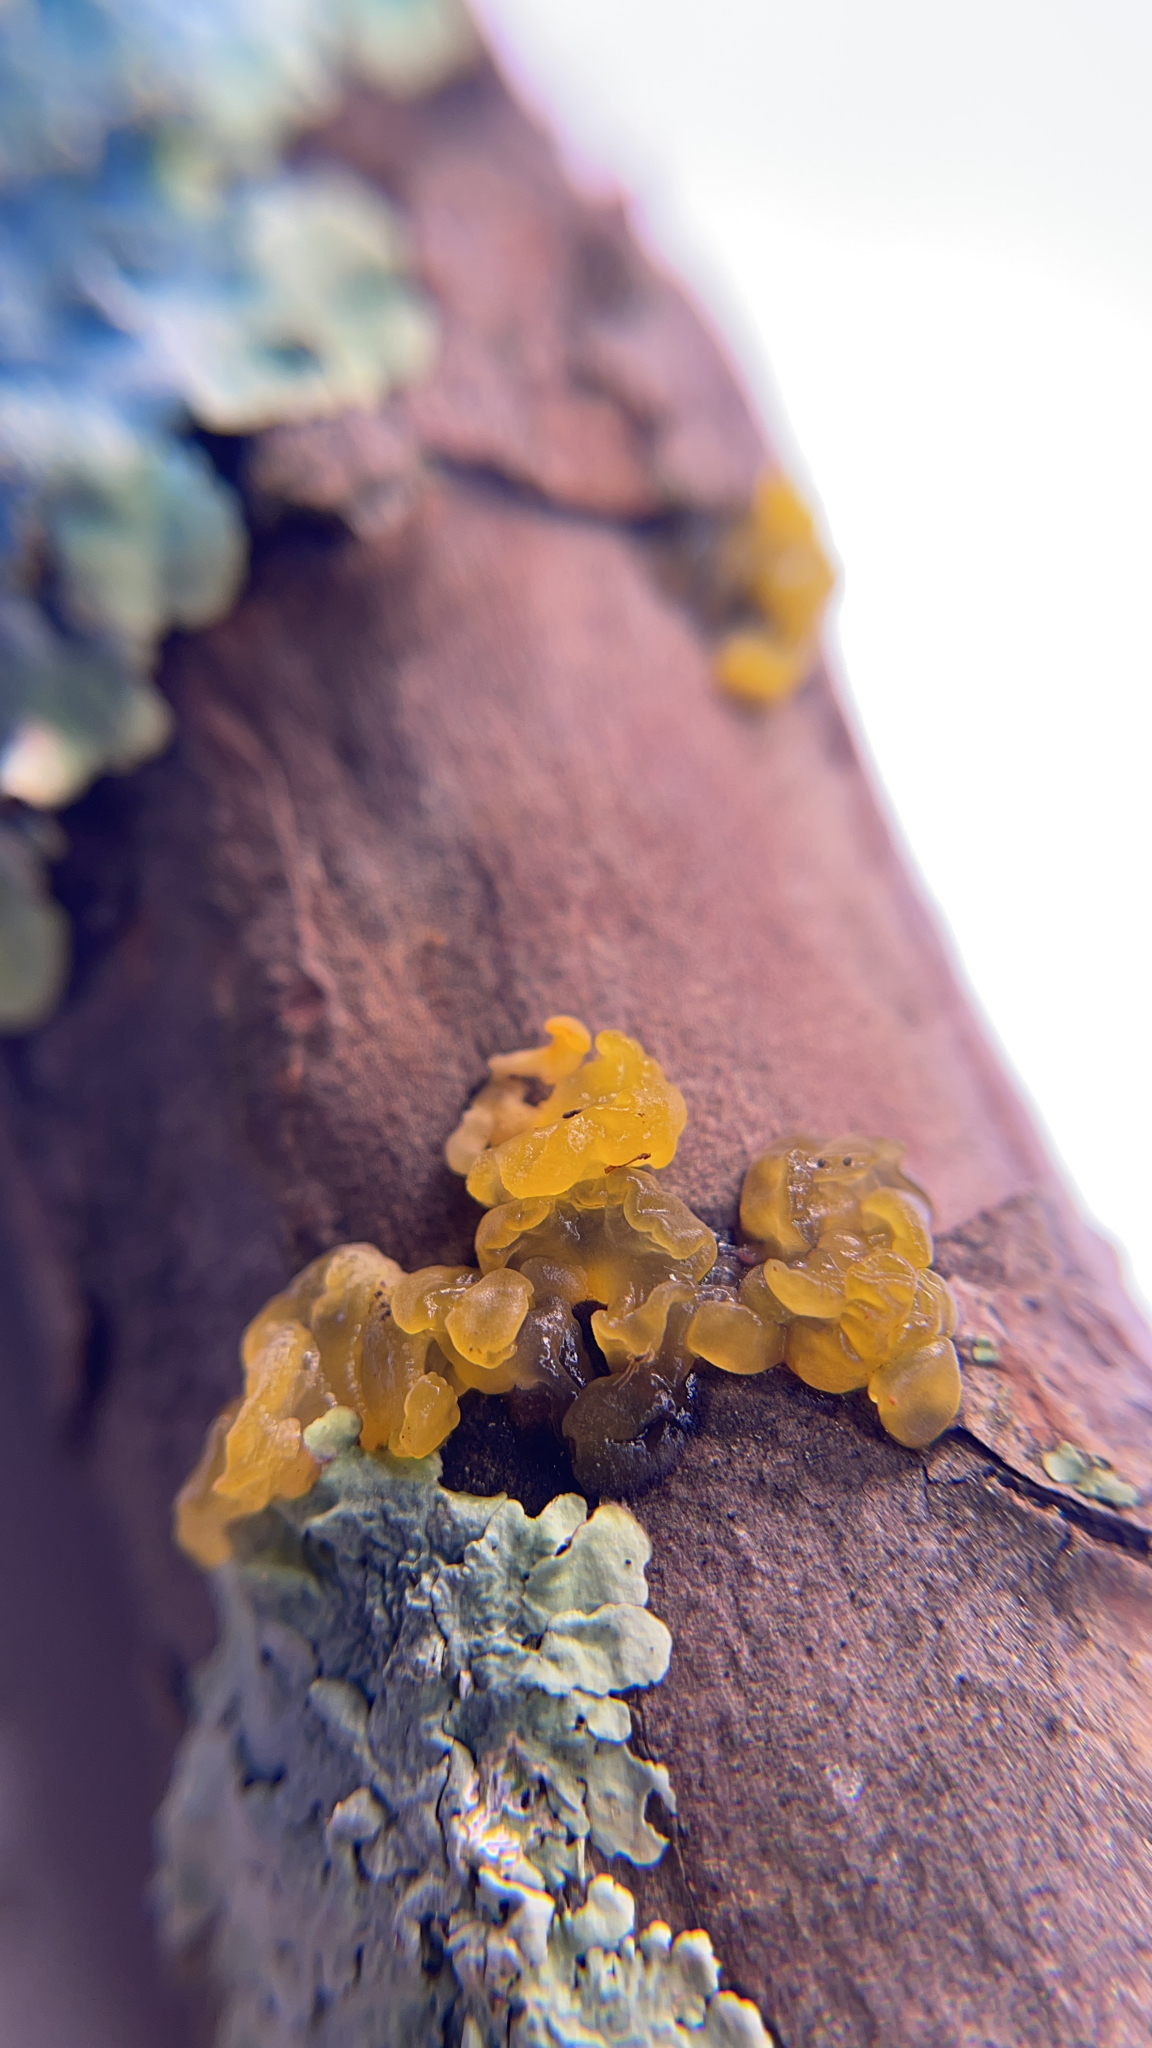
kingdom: Fungi
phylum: Basidiomycota
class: Tremellomycetes
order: Tremellales
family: Tremellaceae
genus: Tremella
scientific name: Tremella mesenterica
